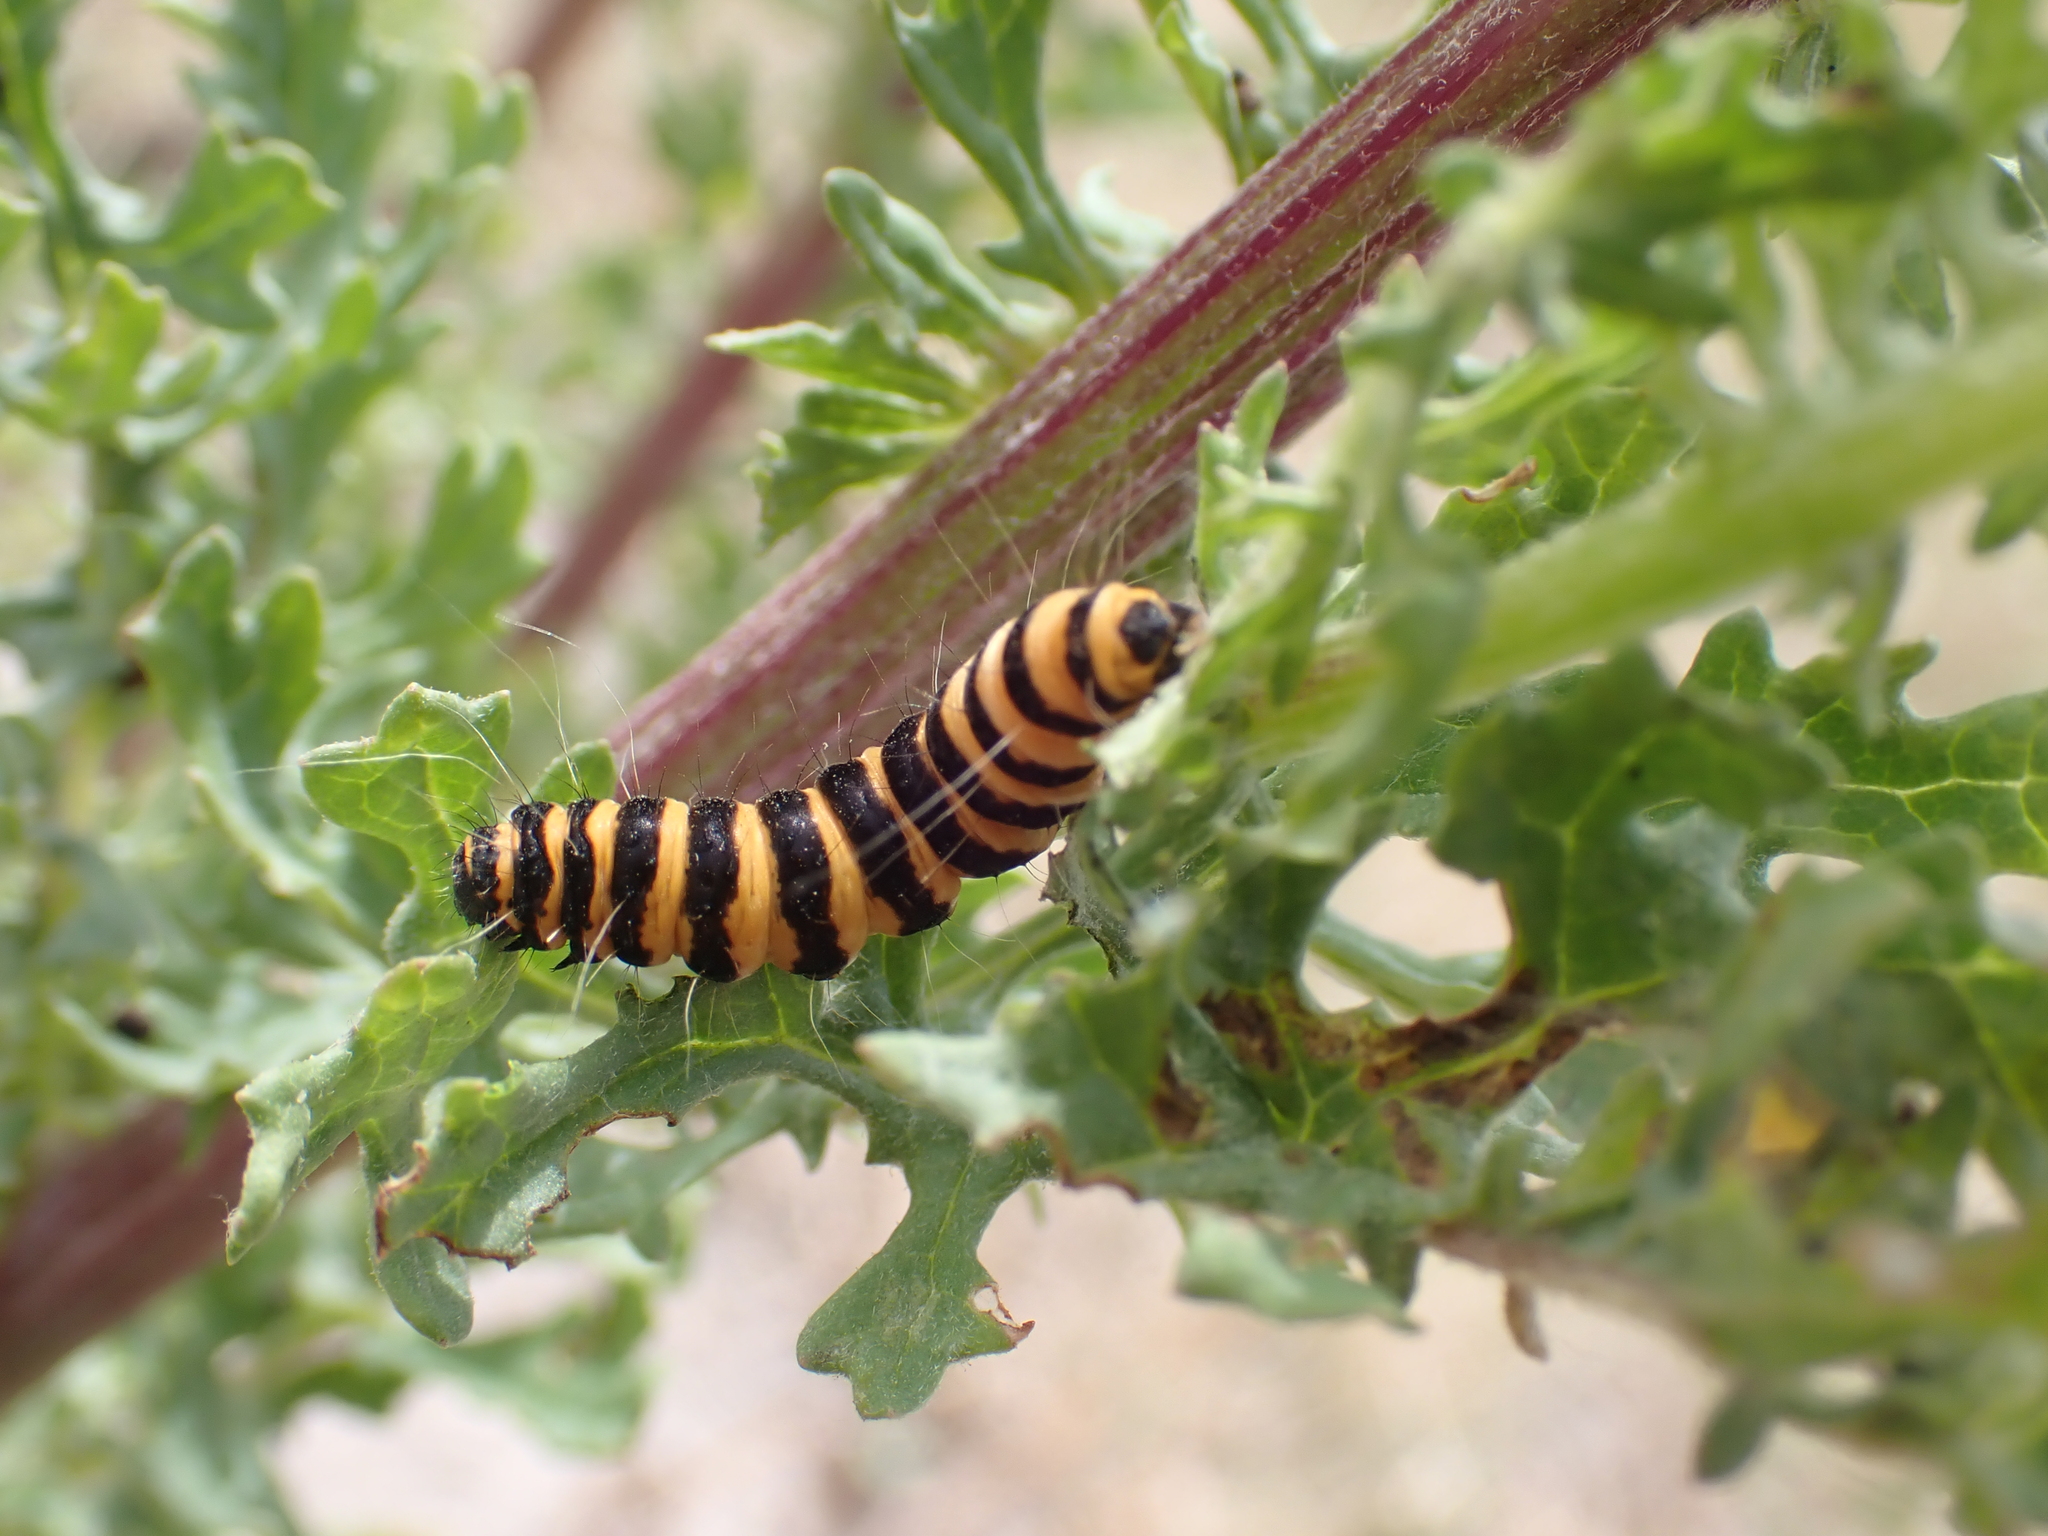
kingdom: Animalia
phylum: Arthropoda
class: Insecta
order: Lepidoptera
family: Erebidae
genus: Tyria
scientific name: Tyria jacobaeae
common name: Cinnabar
